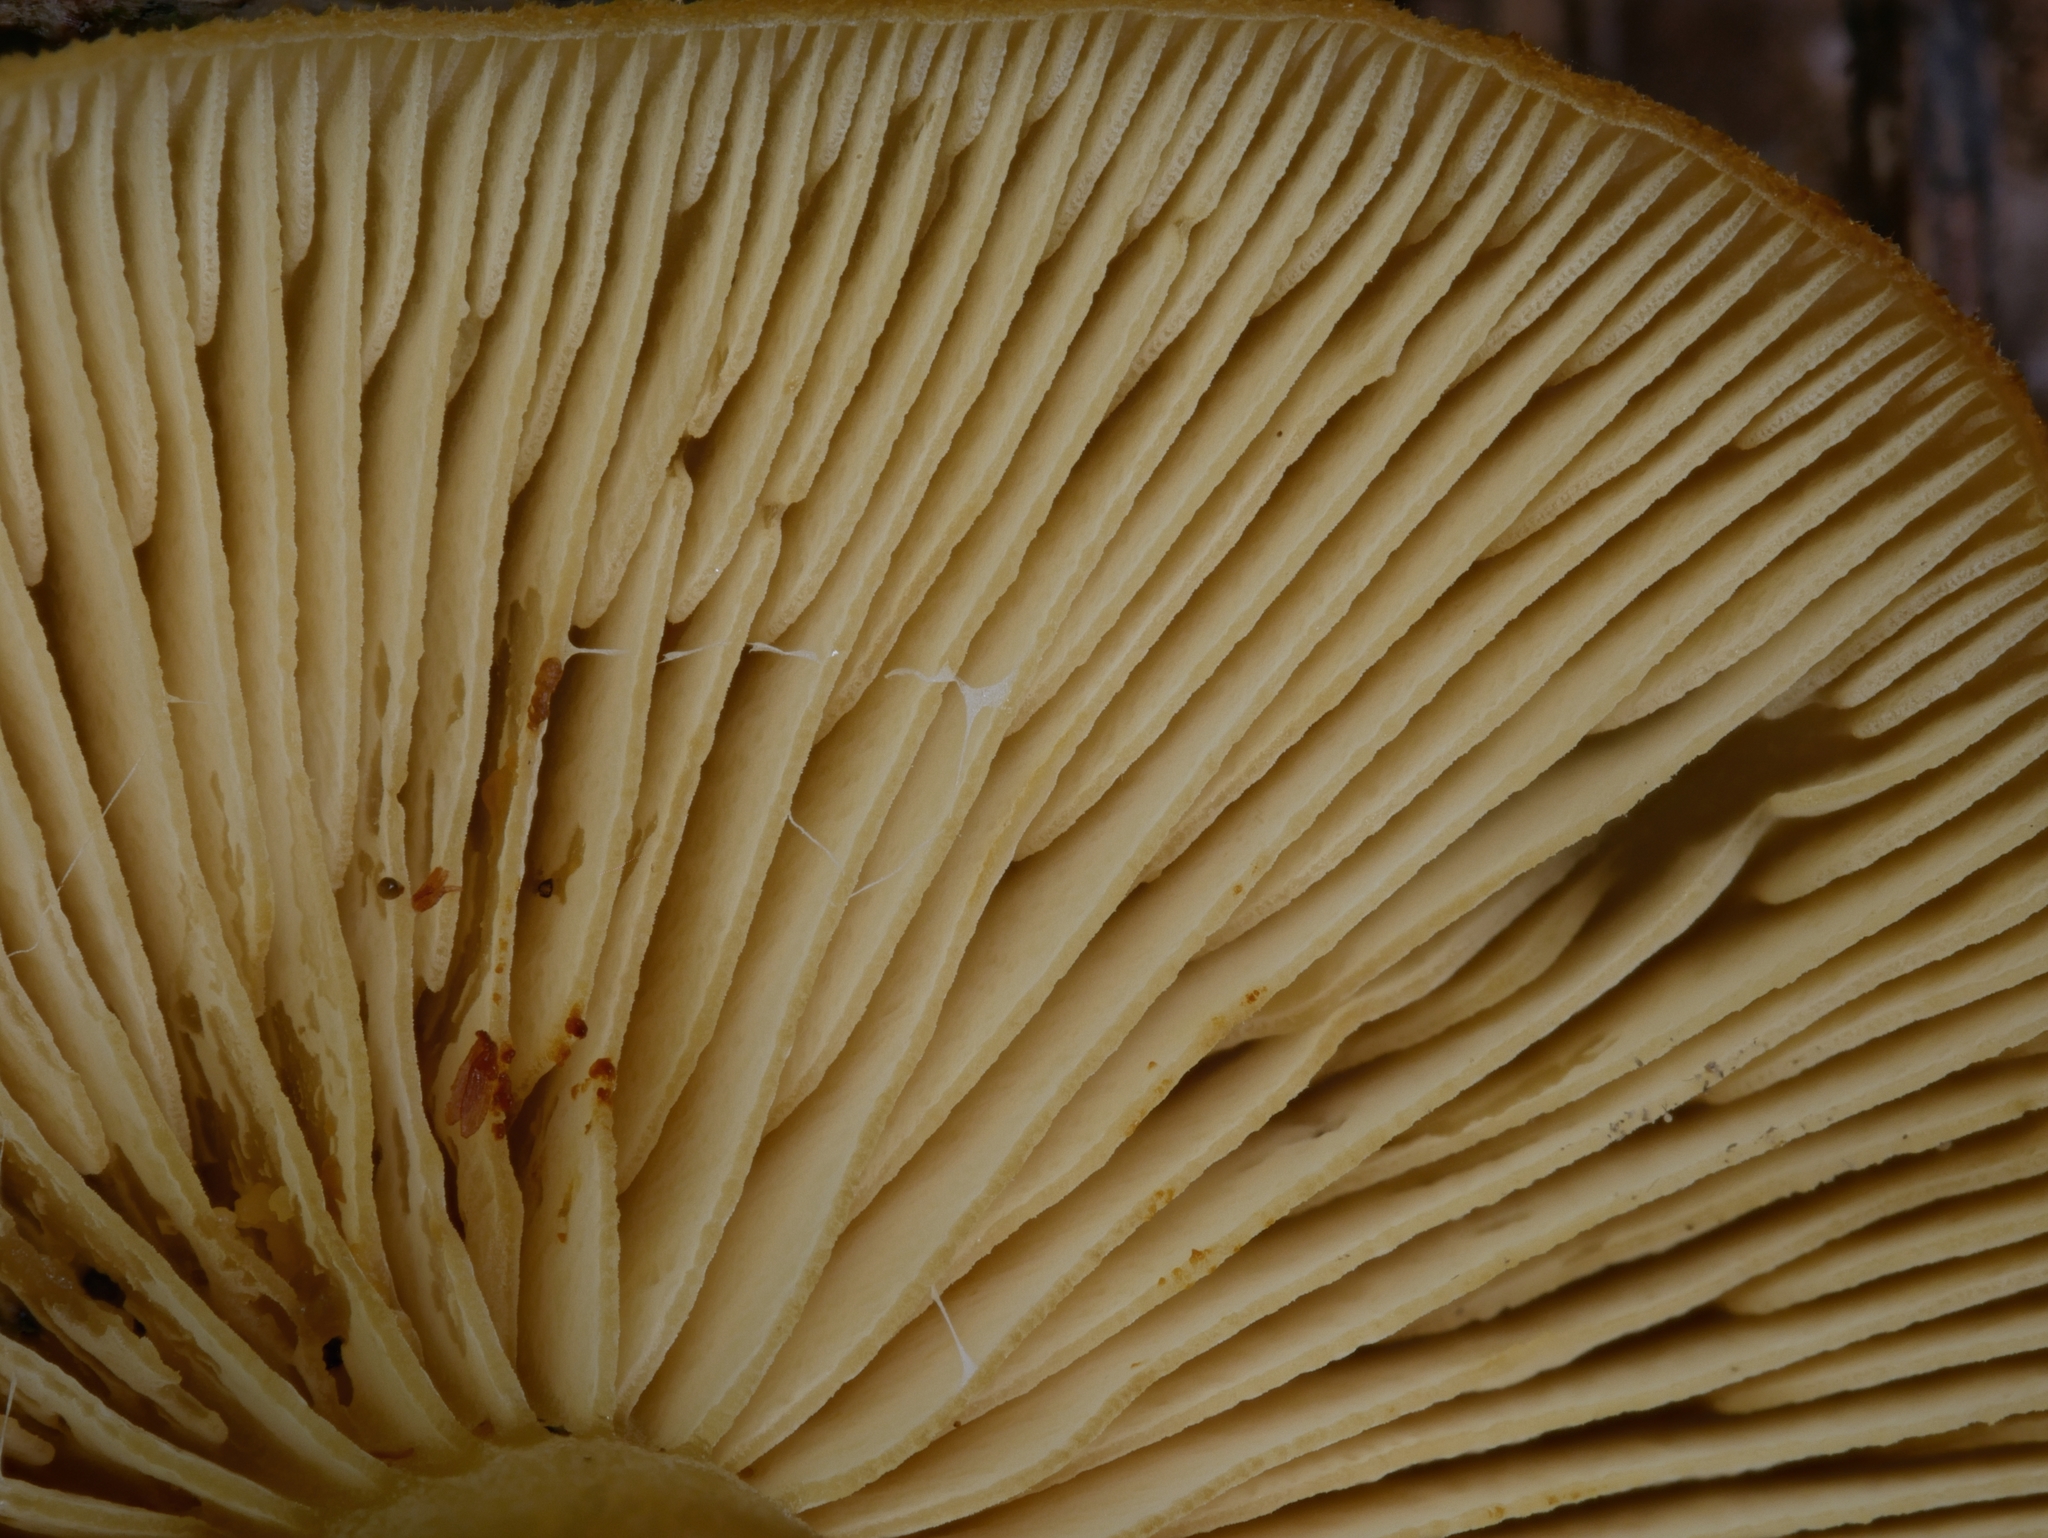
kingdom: Fungi
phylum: Basidiomycota
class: Agaricomycetes
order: Agaricales
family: Tricholomataceae
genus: Tricholomopsis
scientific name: Tricholomopsis decora
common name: Prunes and custard
